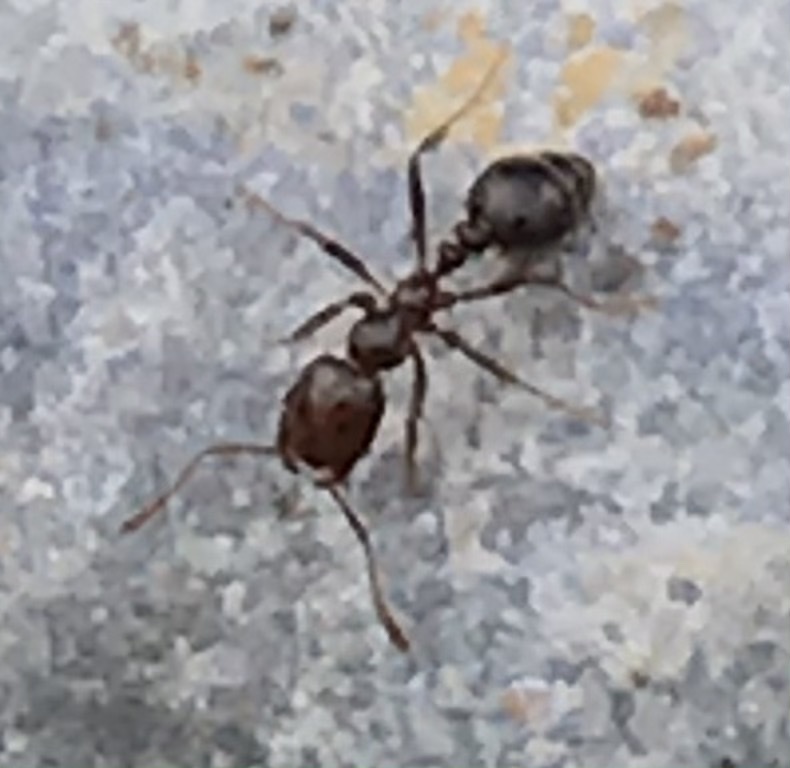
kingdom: Animalia
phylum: Arthropoda
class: Insecta
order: Hymenoptera
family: Formicidae
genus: Solenopsis
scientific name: Solenopsis invicta
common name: Red imported fire ant
